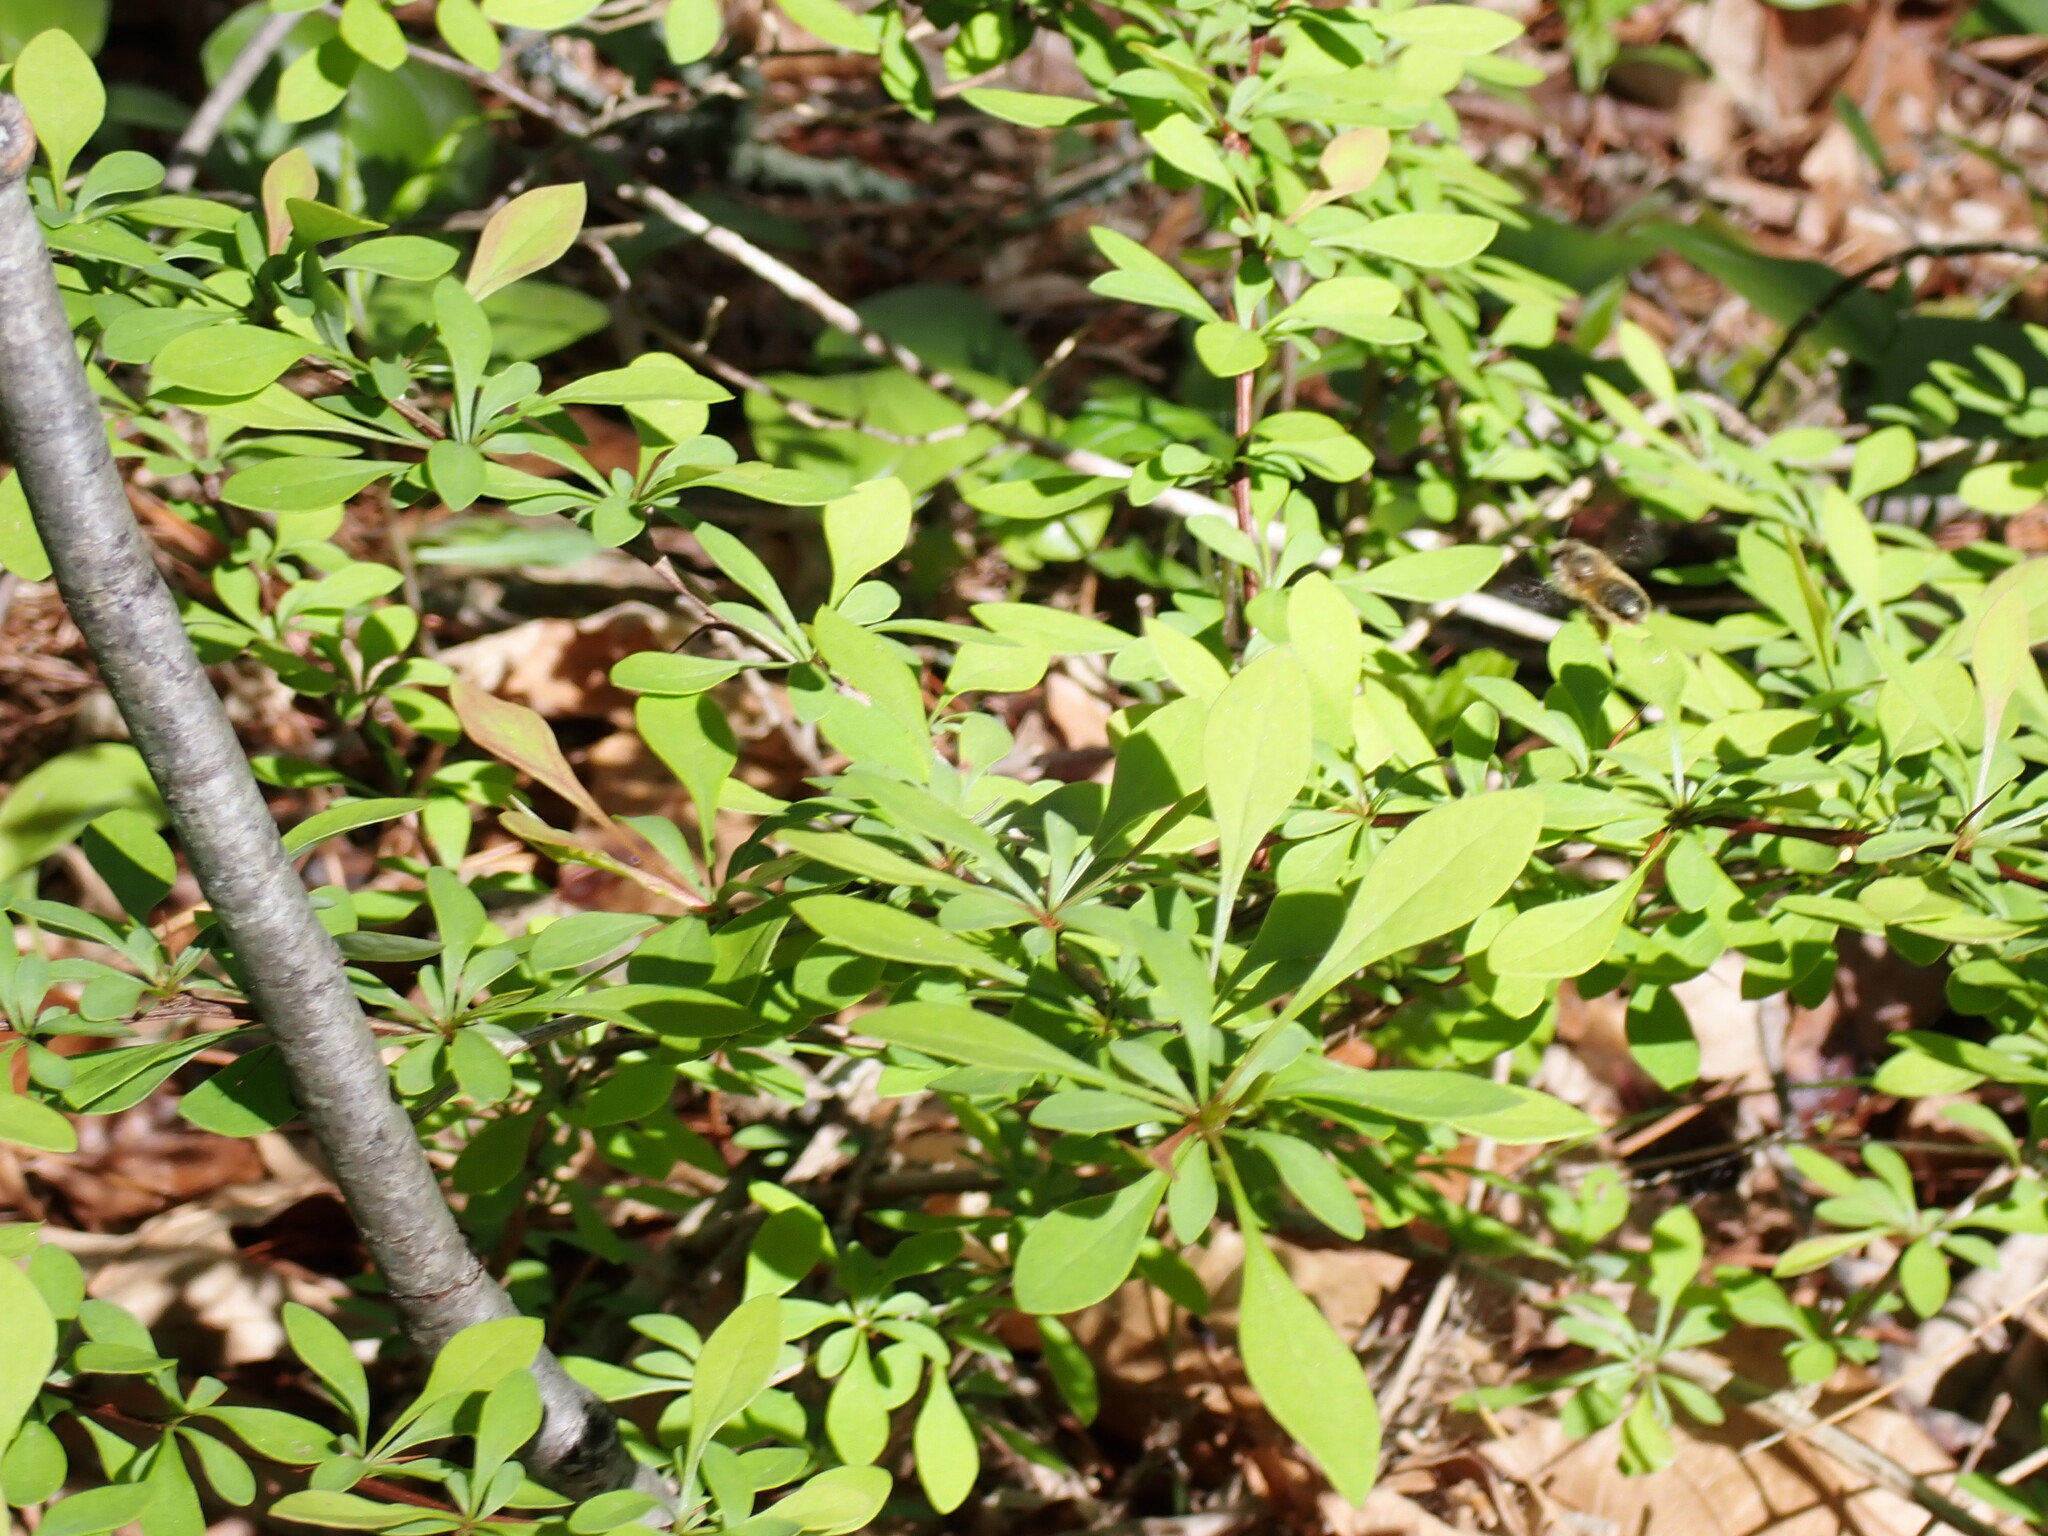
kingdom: Plantae
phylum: Tracheophyta
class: Magnoliopsida
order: Ranunculales
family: Berberidaceae
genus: Berberis
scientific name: Berberis thunbergii
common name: Japanese barberry
